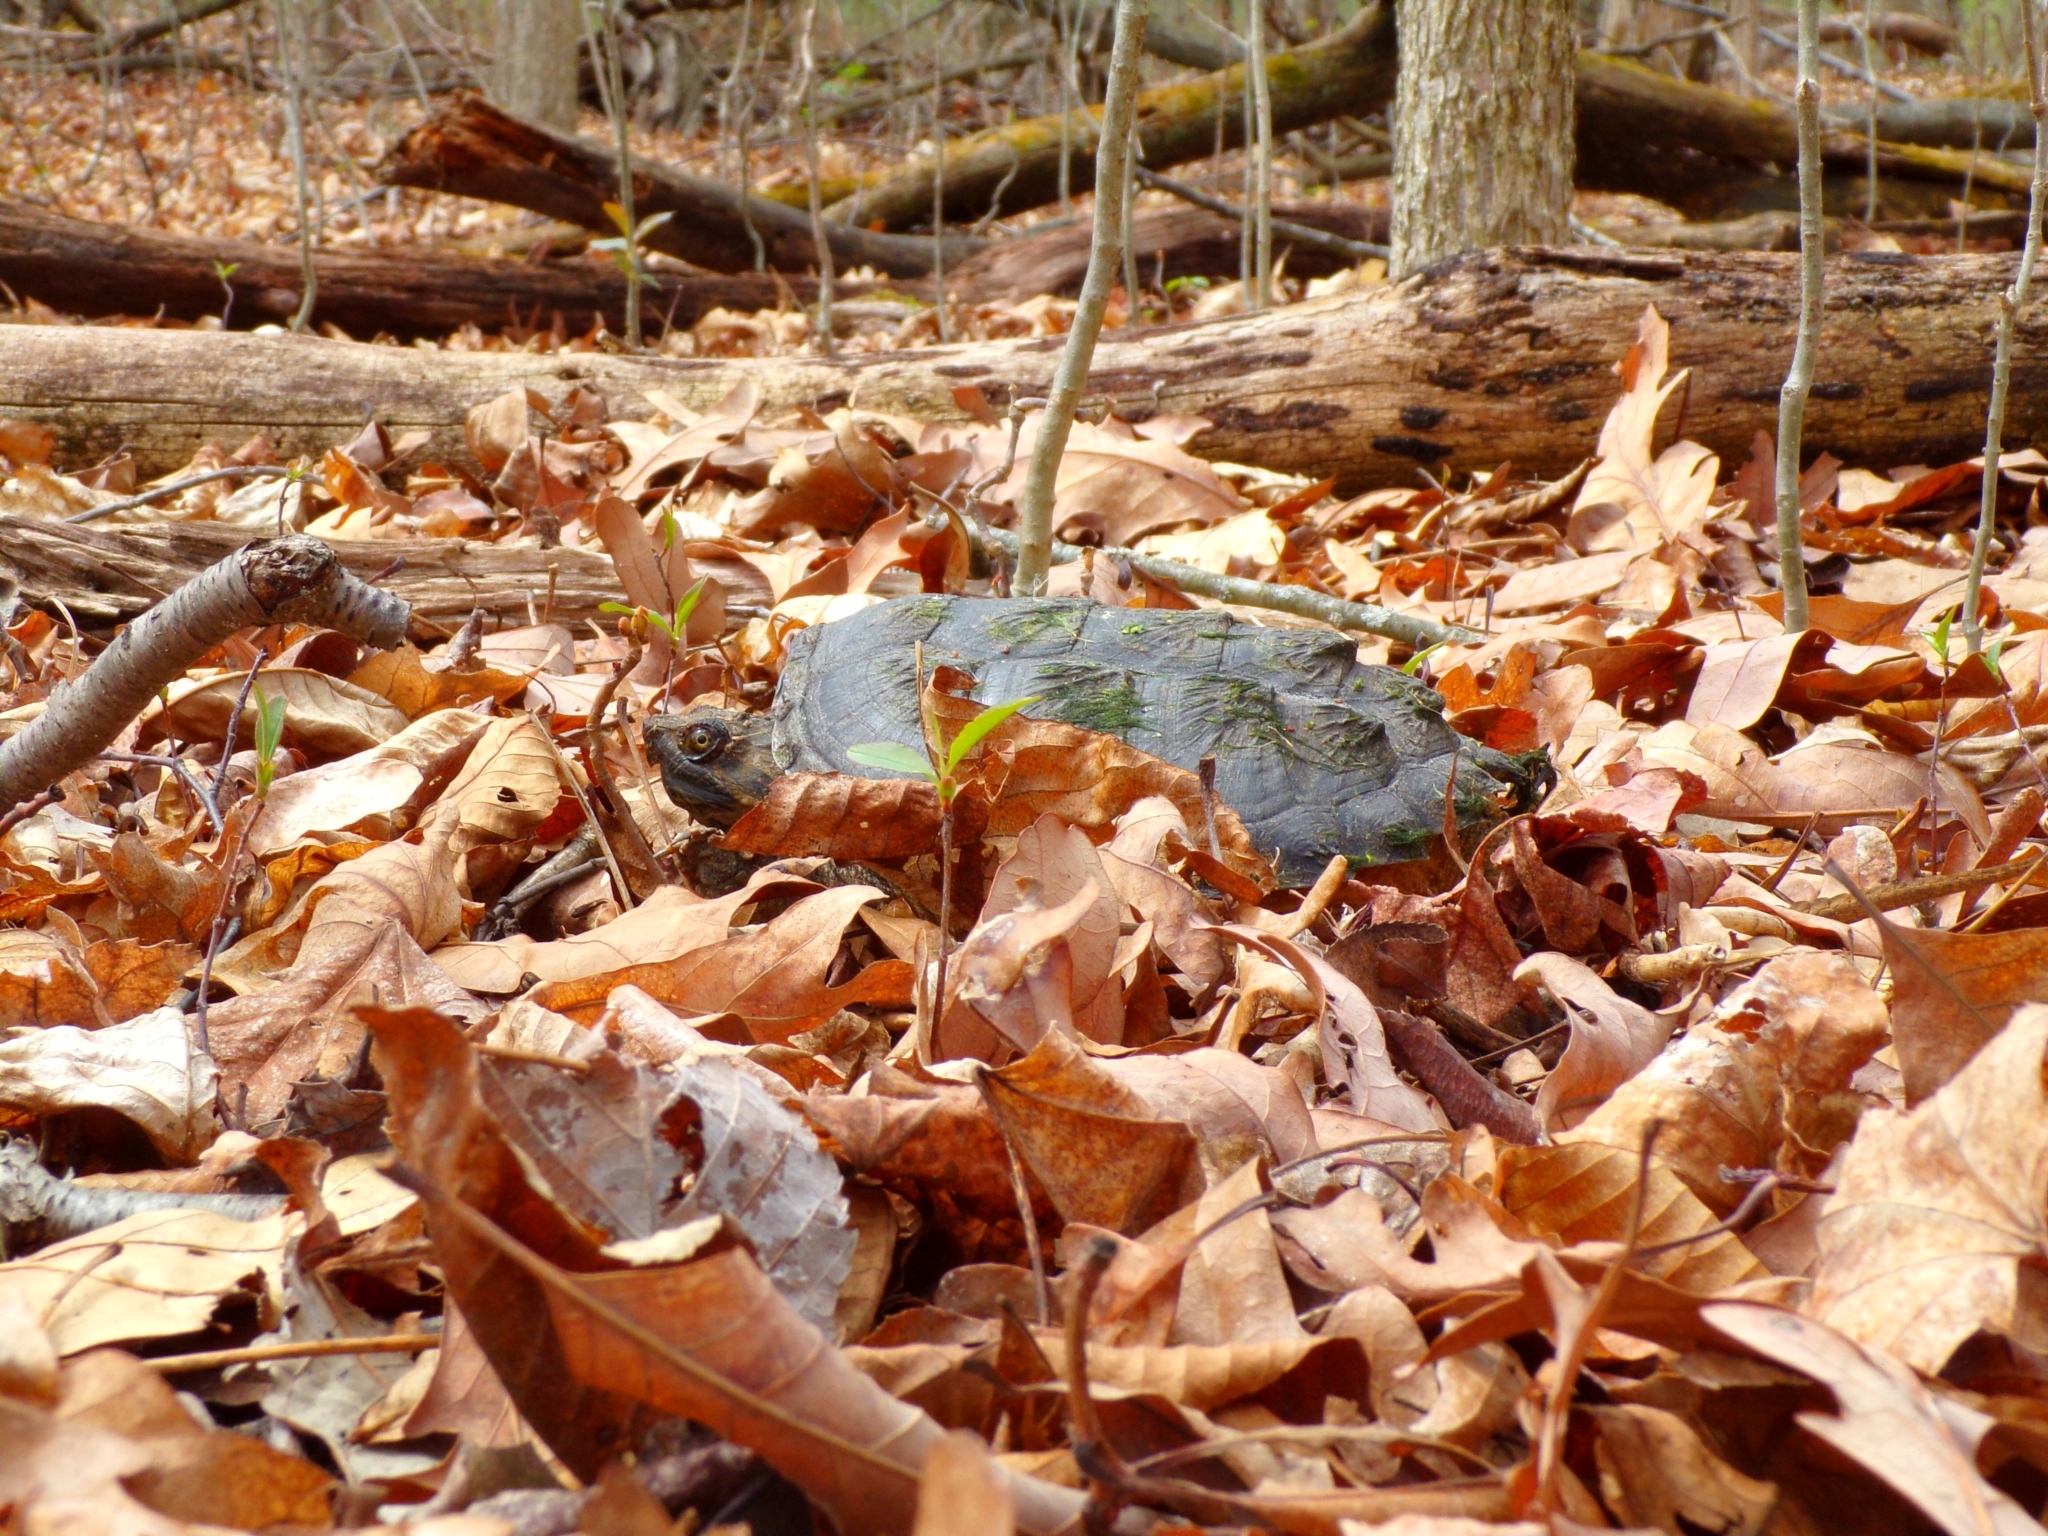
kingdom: Animalia
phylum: Chordata
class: Testudines
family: Chelydridae
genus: Chelydra
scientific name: Chelydra serpentina
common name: Common snapping turtle
